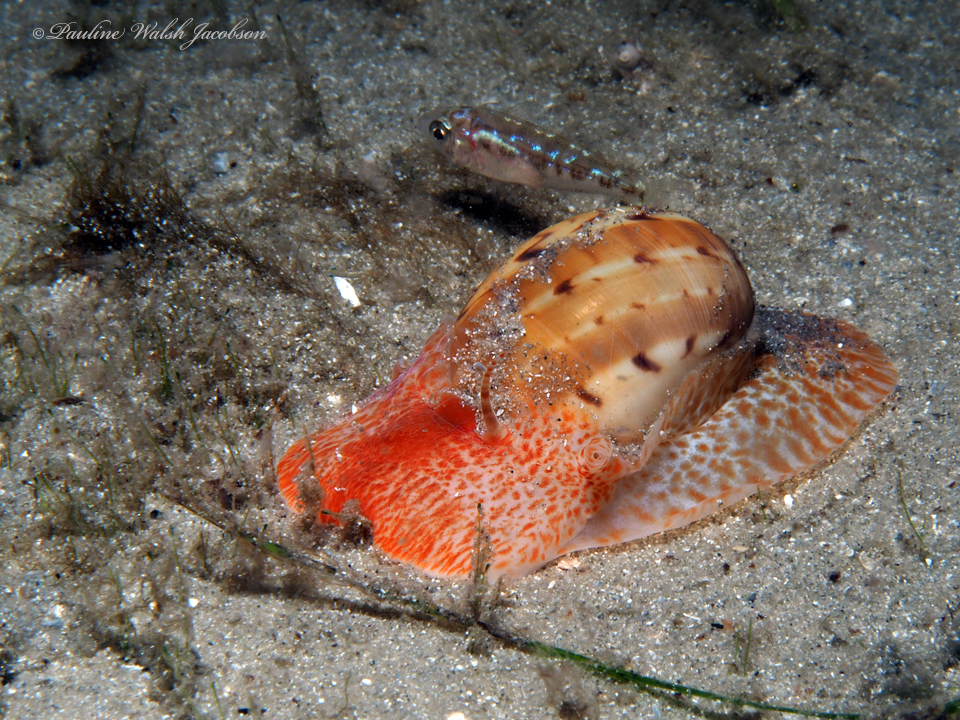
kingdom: Animalia
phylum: Mollusca
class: Gastropoda
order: Littorinimorpha
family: Naticidae
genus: Naticarius
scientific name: Naticarius canrena
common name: Colorful moonsnail
